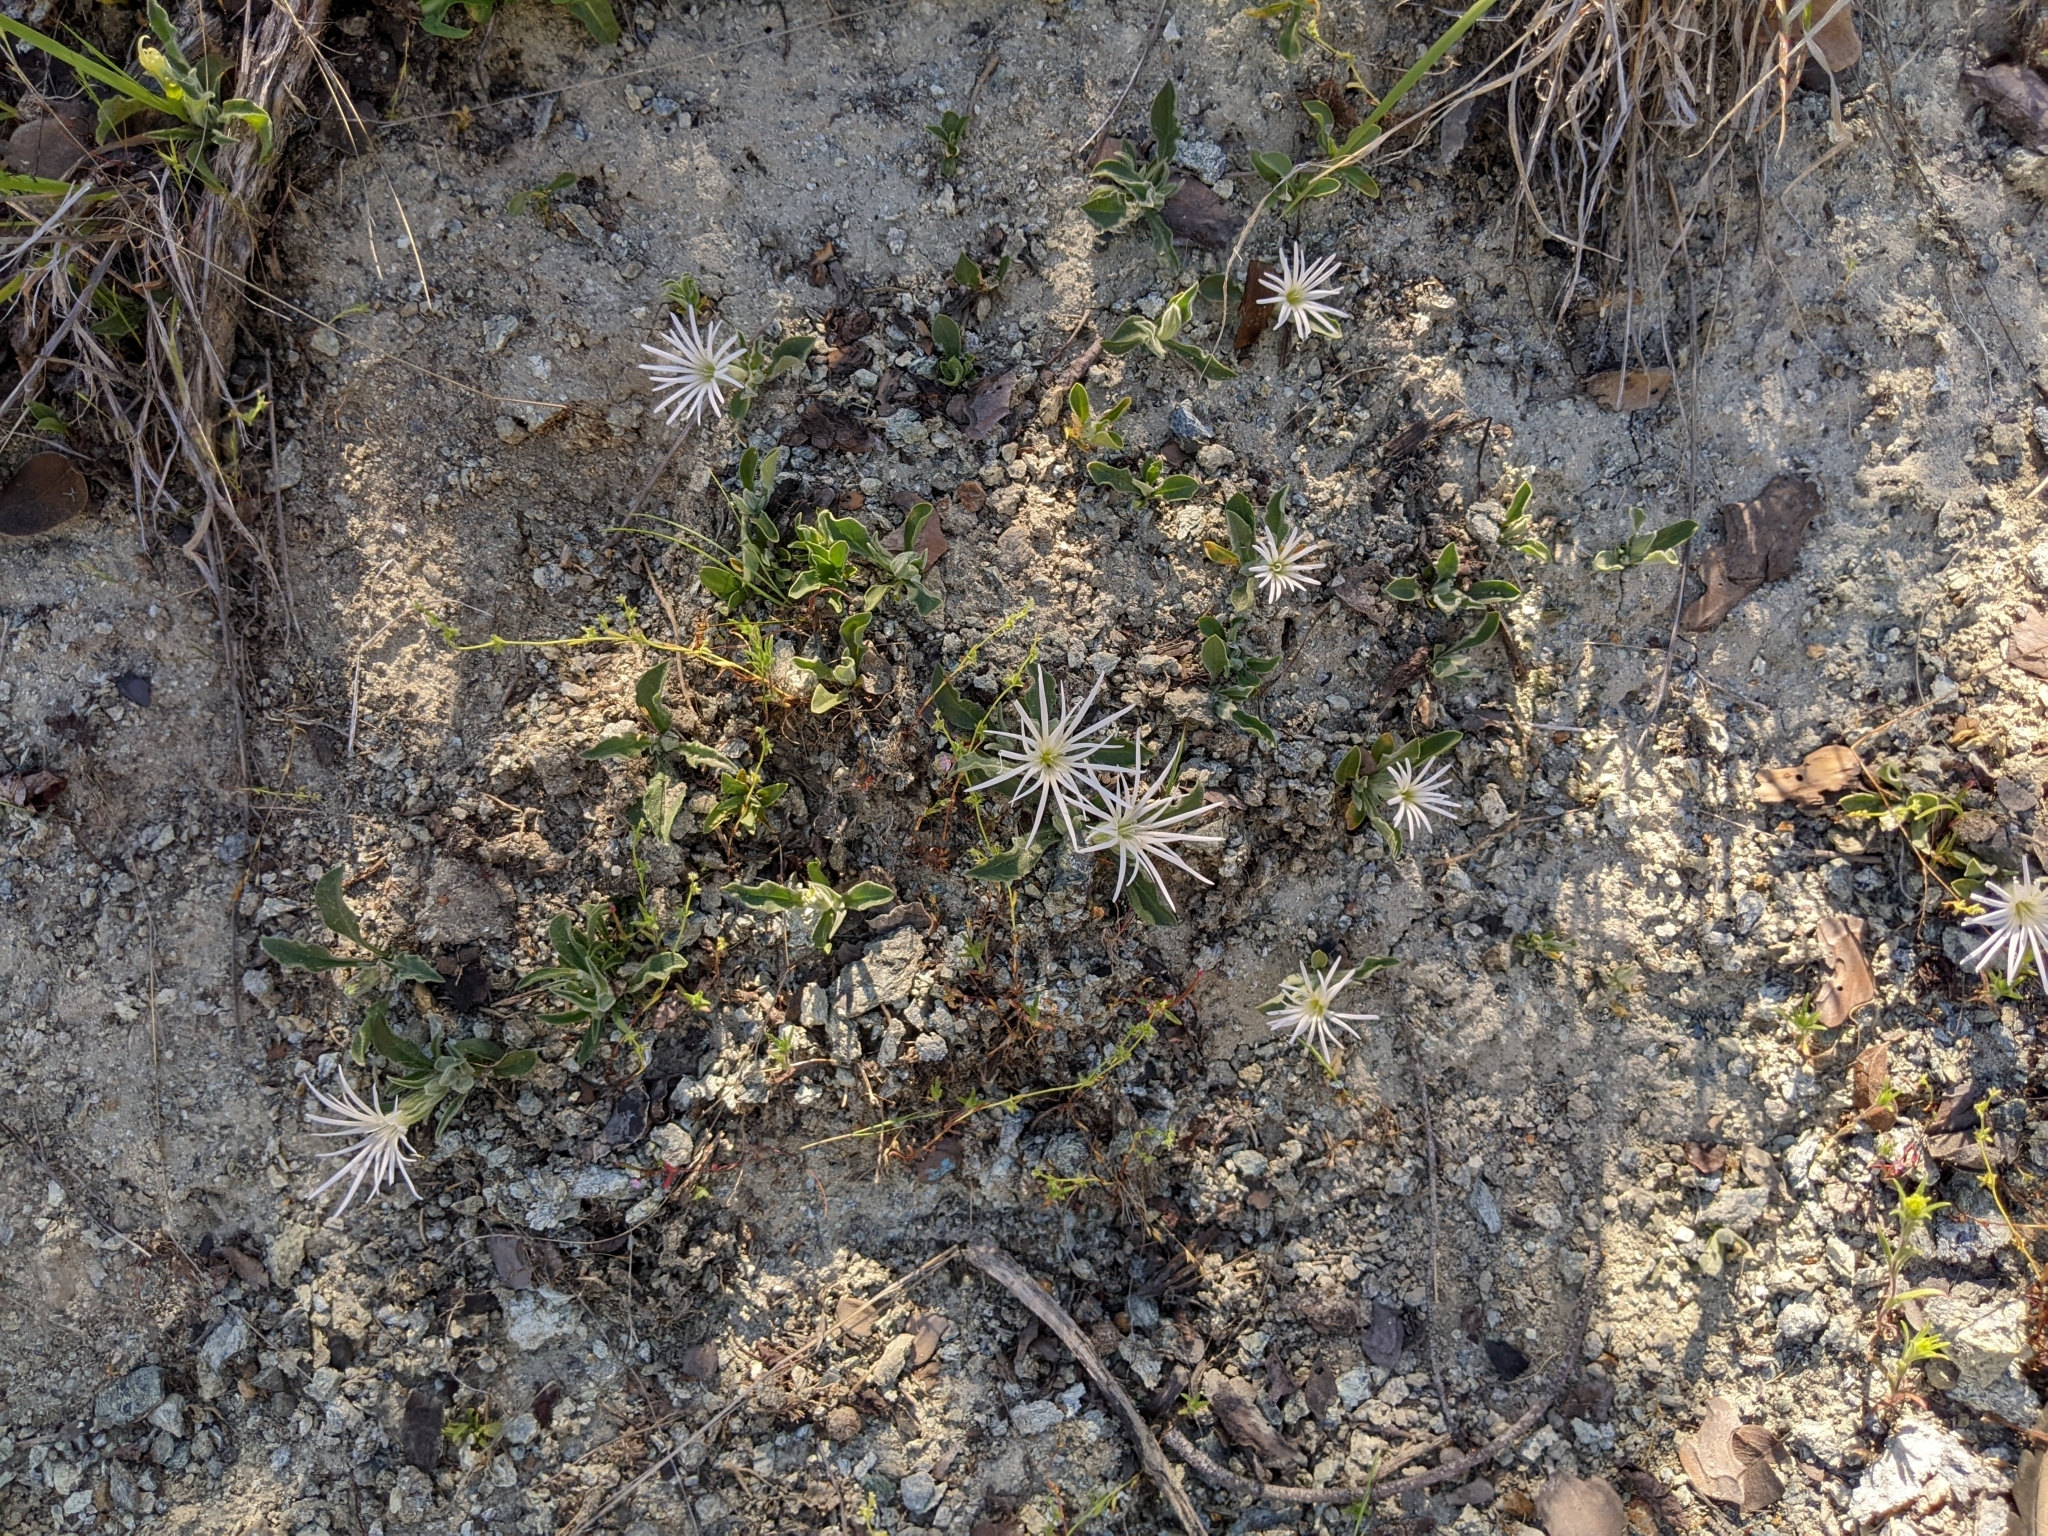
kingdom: Plantae
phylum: Tracheophyta
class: Magnoliopsida
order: Caryophyllales
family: Caryophyllaceae
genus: Silene
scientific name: Silene nelsonii
